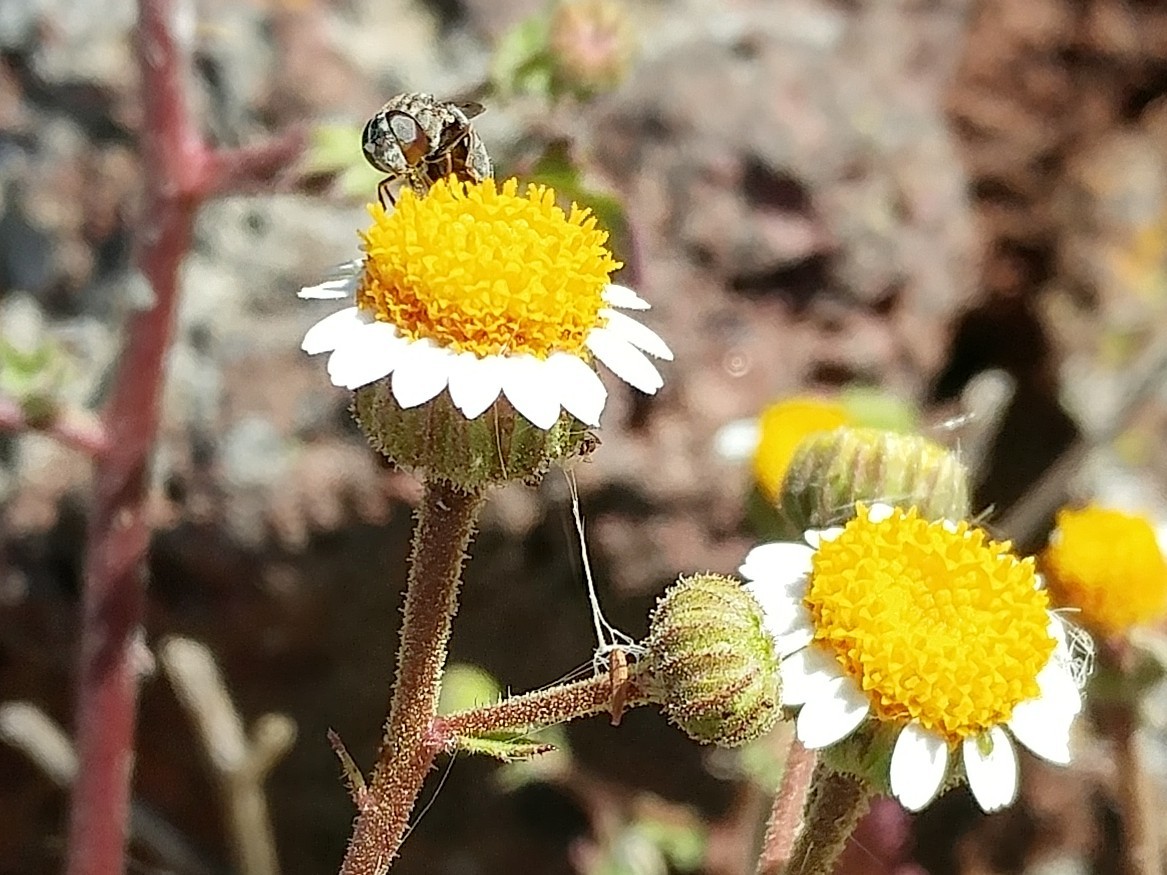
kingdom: Animalia
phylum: Arthropoda
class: Insecta
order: Diptera
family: Syrphidae
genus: Nausigaster
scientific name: Nausigaster unimaculata
